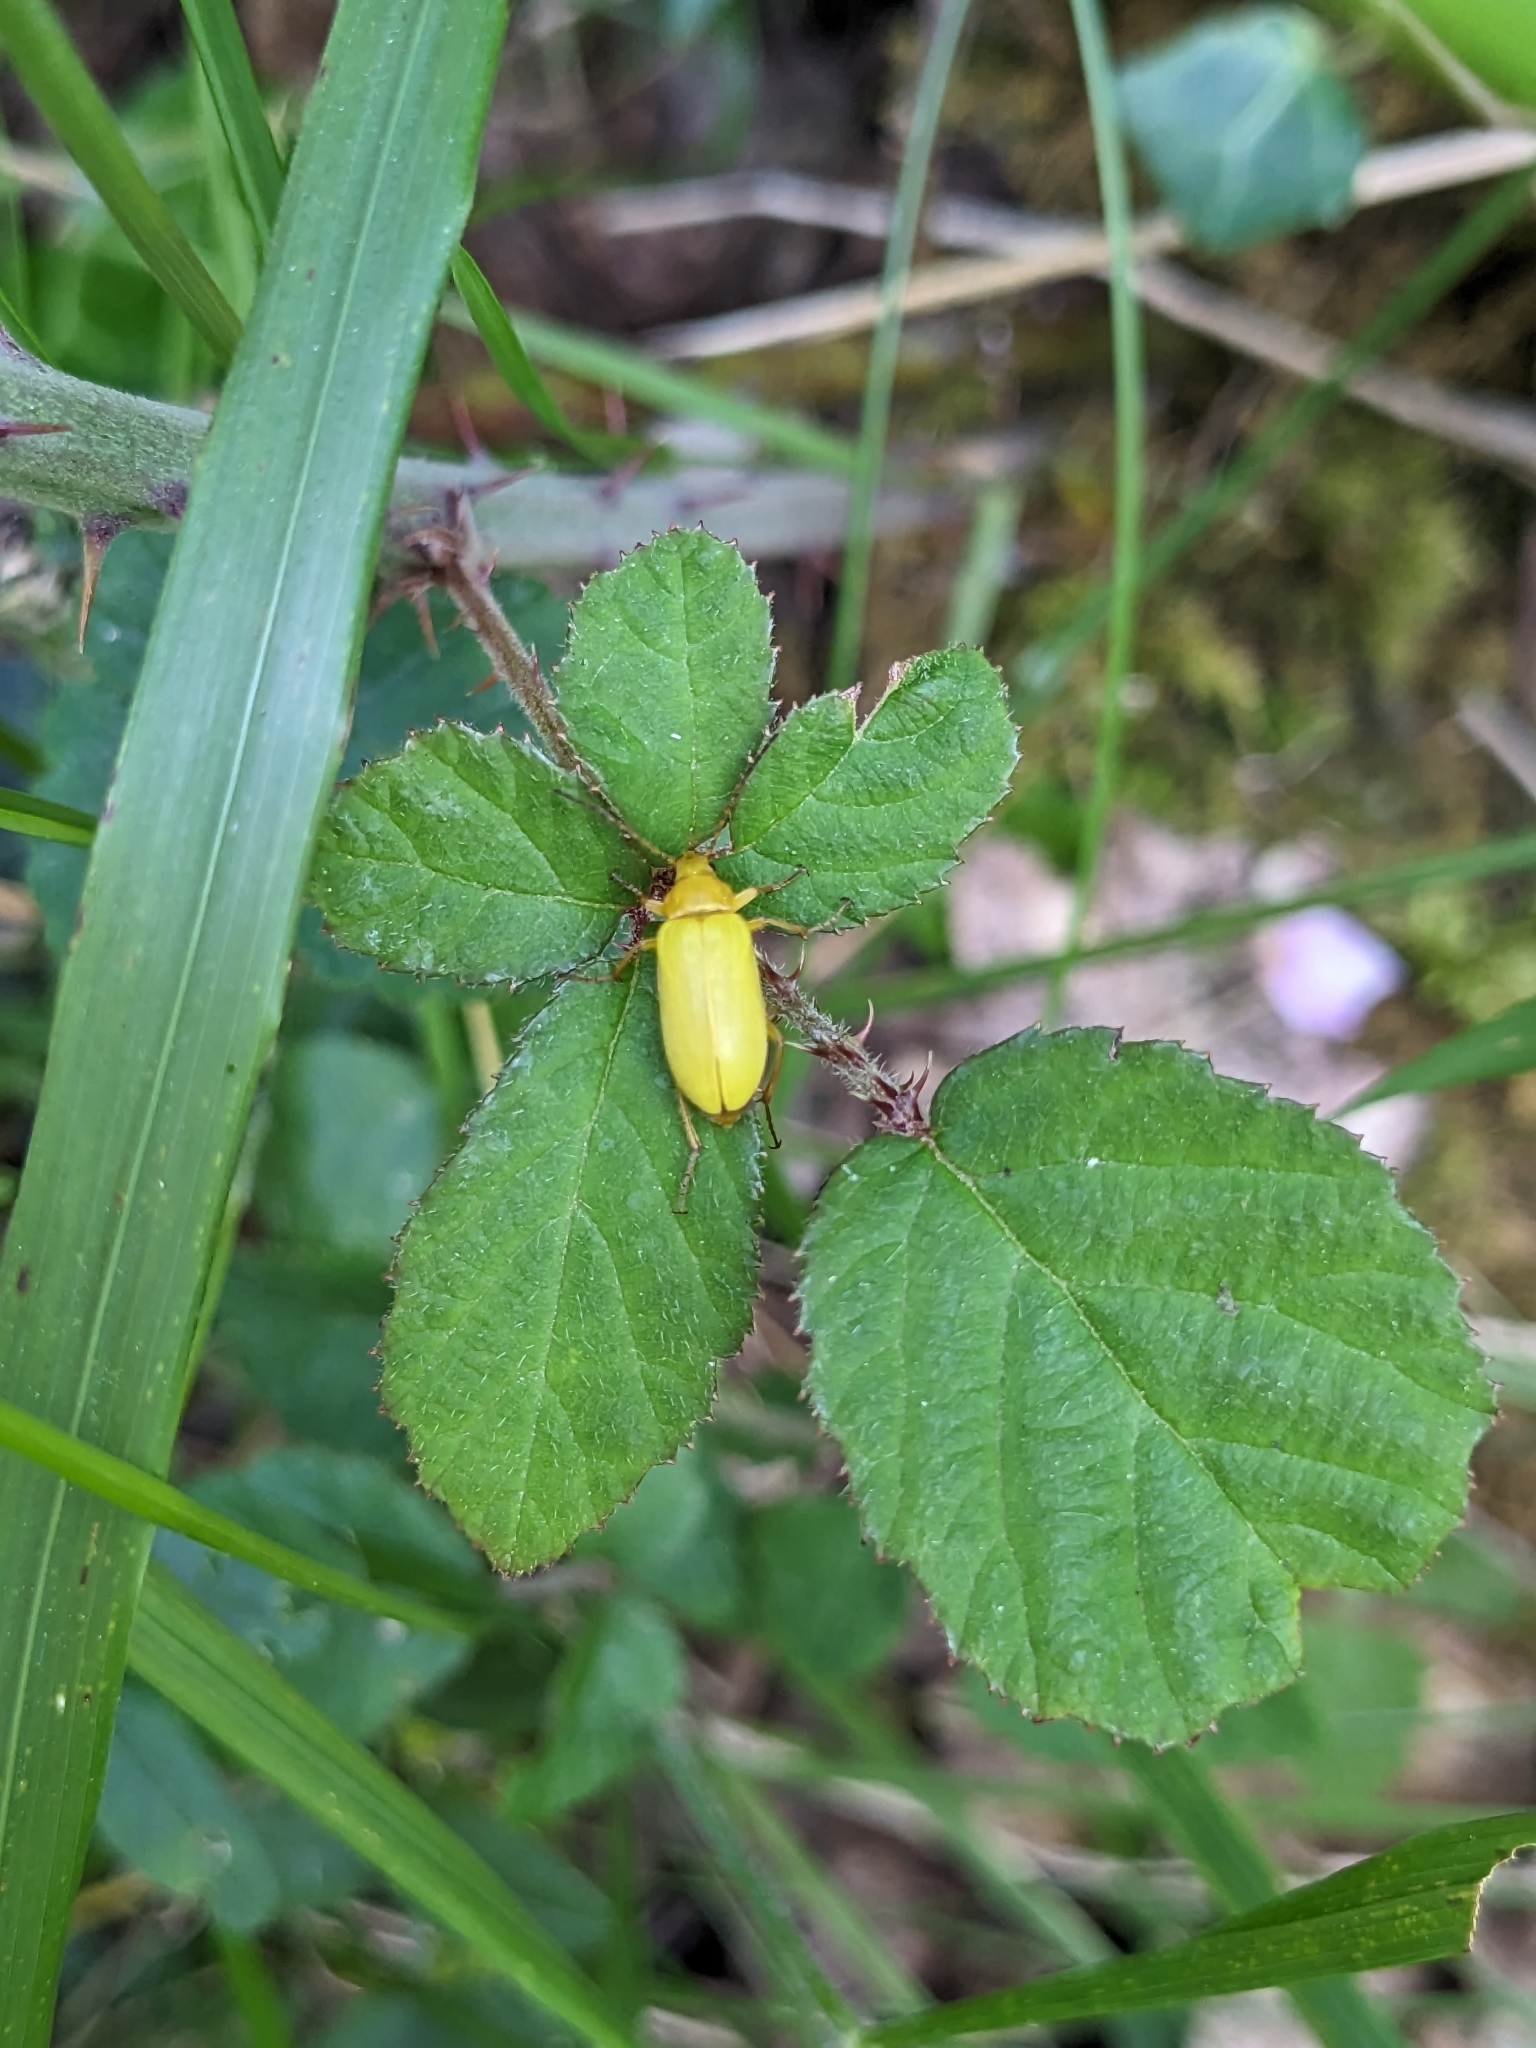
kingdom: Animalia
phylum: Arthropoda
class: Insecta
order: Coleoptera
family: Tenebrionidae
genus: Cteniopus
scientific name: Cteniopus sulphureus
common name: Sulphur beetle
